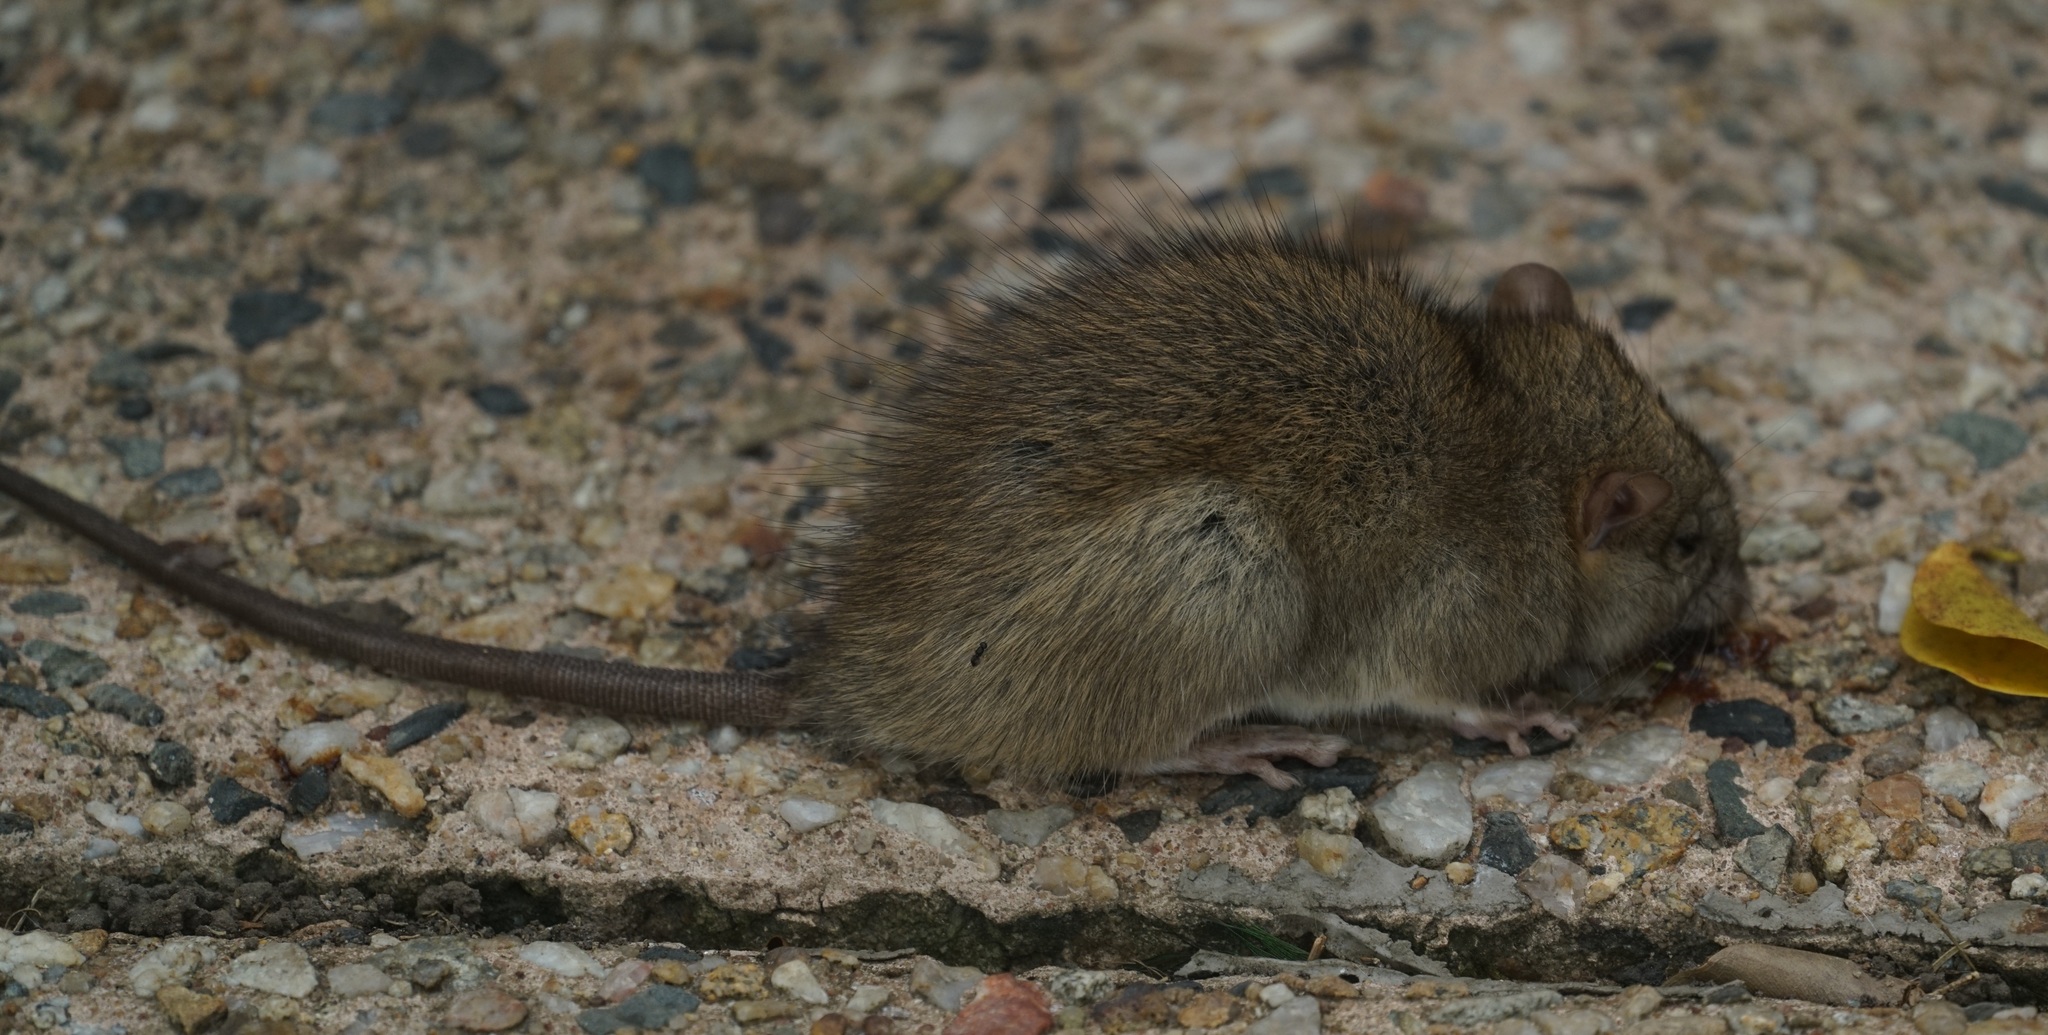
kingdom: Animalia
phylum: Chordata
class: Mammalia
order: Rodentia
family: Muridae
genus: Rattus
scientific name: Rattus rattus
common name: Black rat
